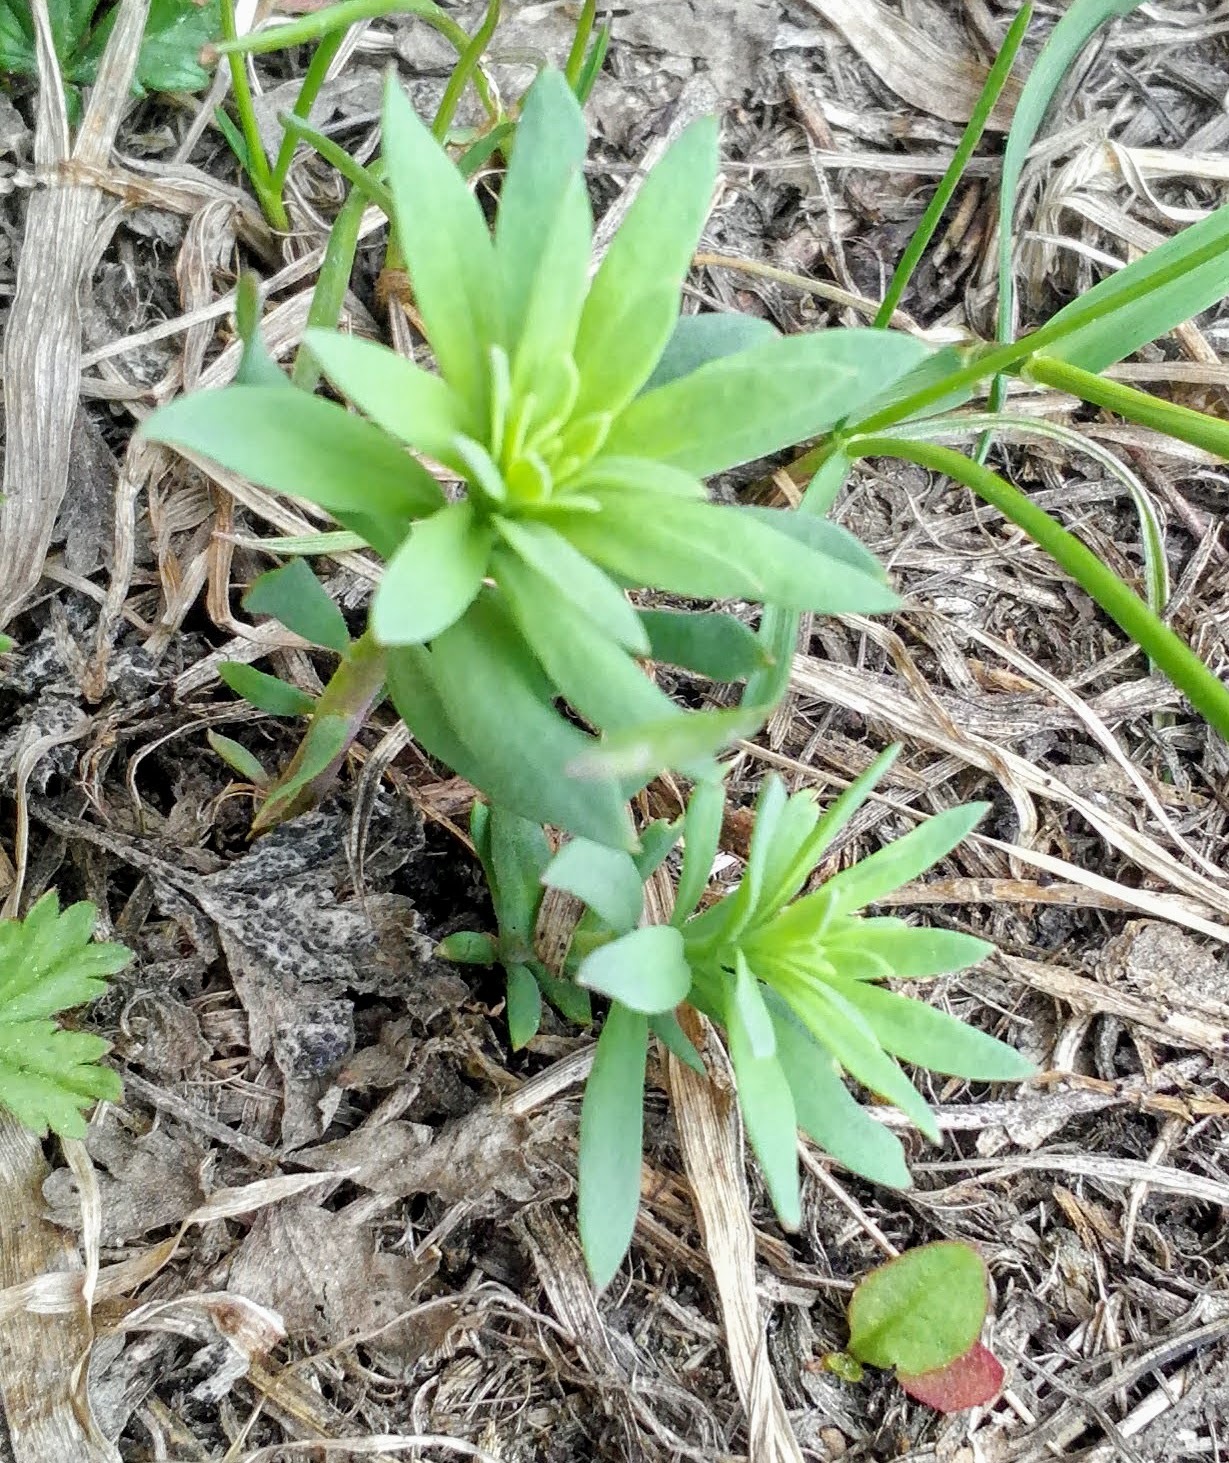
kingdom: Plantae
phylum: Tracheophyta
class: Magnoliopsida
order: Lamiales
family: Plantaginaceae
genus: Linaria
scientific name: Linaria vulgaris
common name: Butter and eggs
